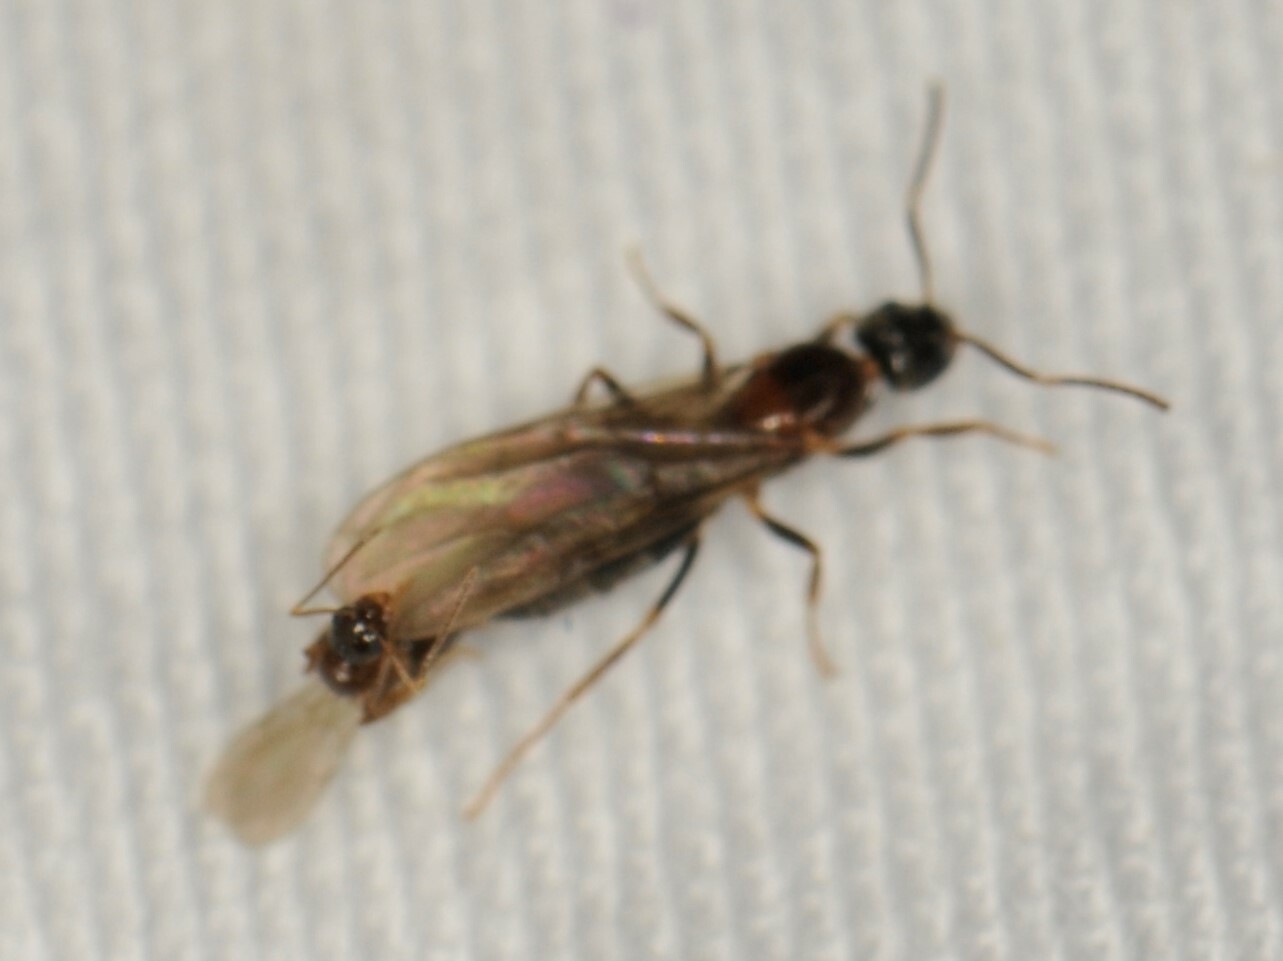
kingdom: Animalia
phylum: Arthropoda
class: Insecta
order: Hymenoptera
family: Formicidae
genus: Nylanderia
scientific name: Nylanderia
